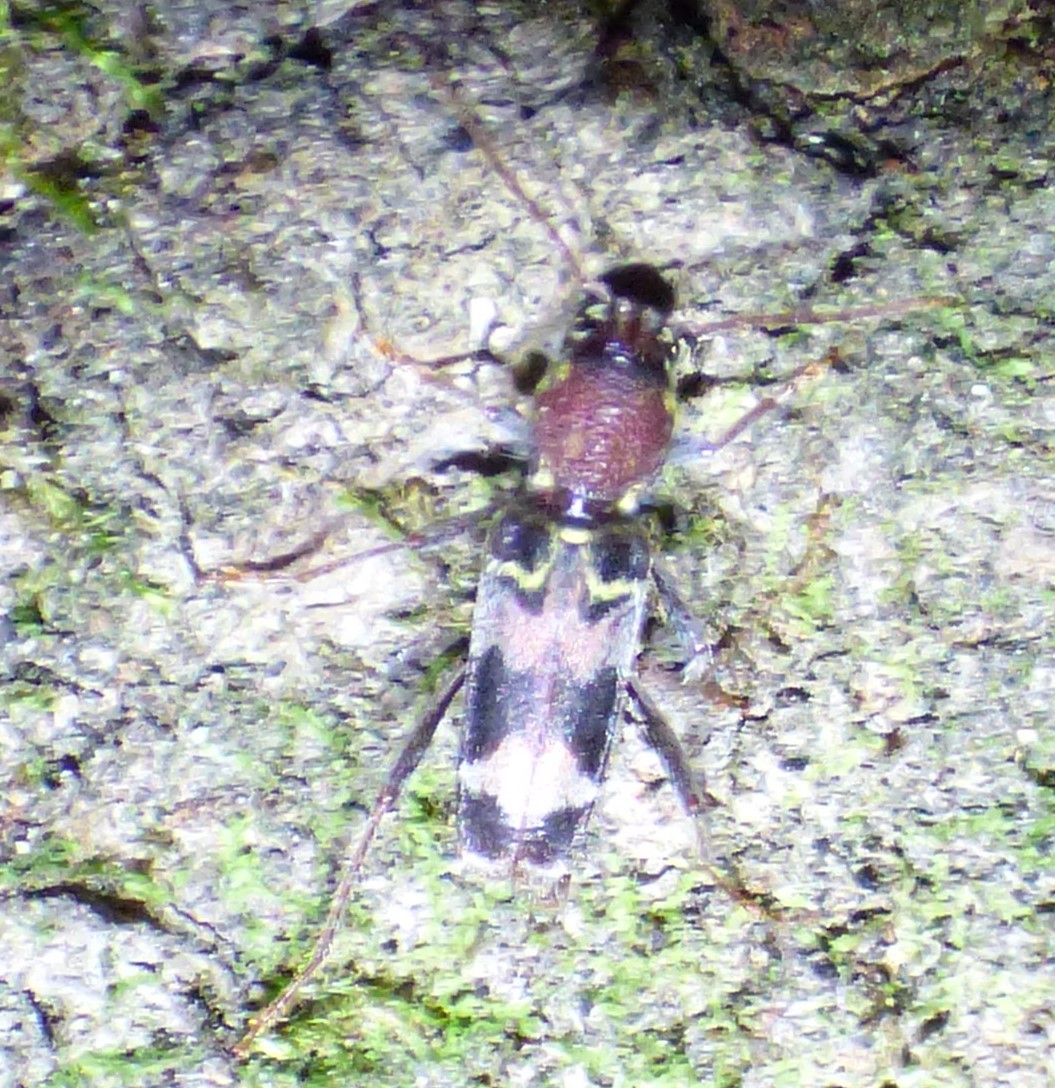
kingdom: Animalia
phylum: Arthropoda
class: Insecta
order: Coleoptera
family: Cerambycidae
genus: Xylotrechus
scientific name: Xylotrechus colonus
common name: Long-horned beetle
